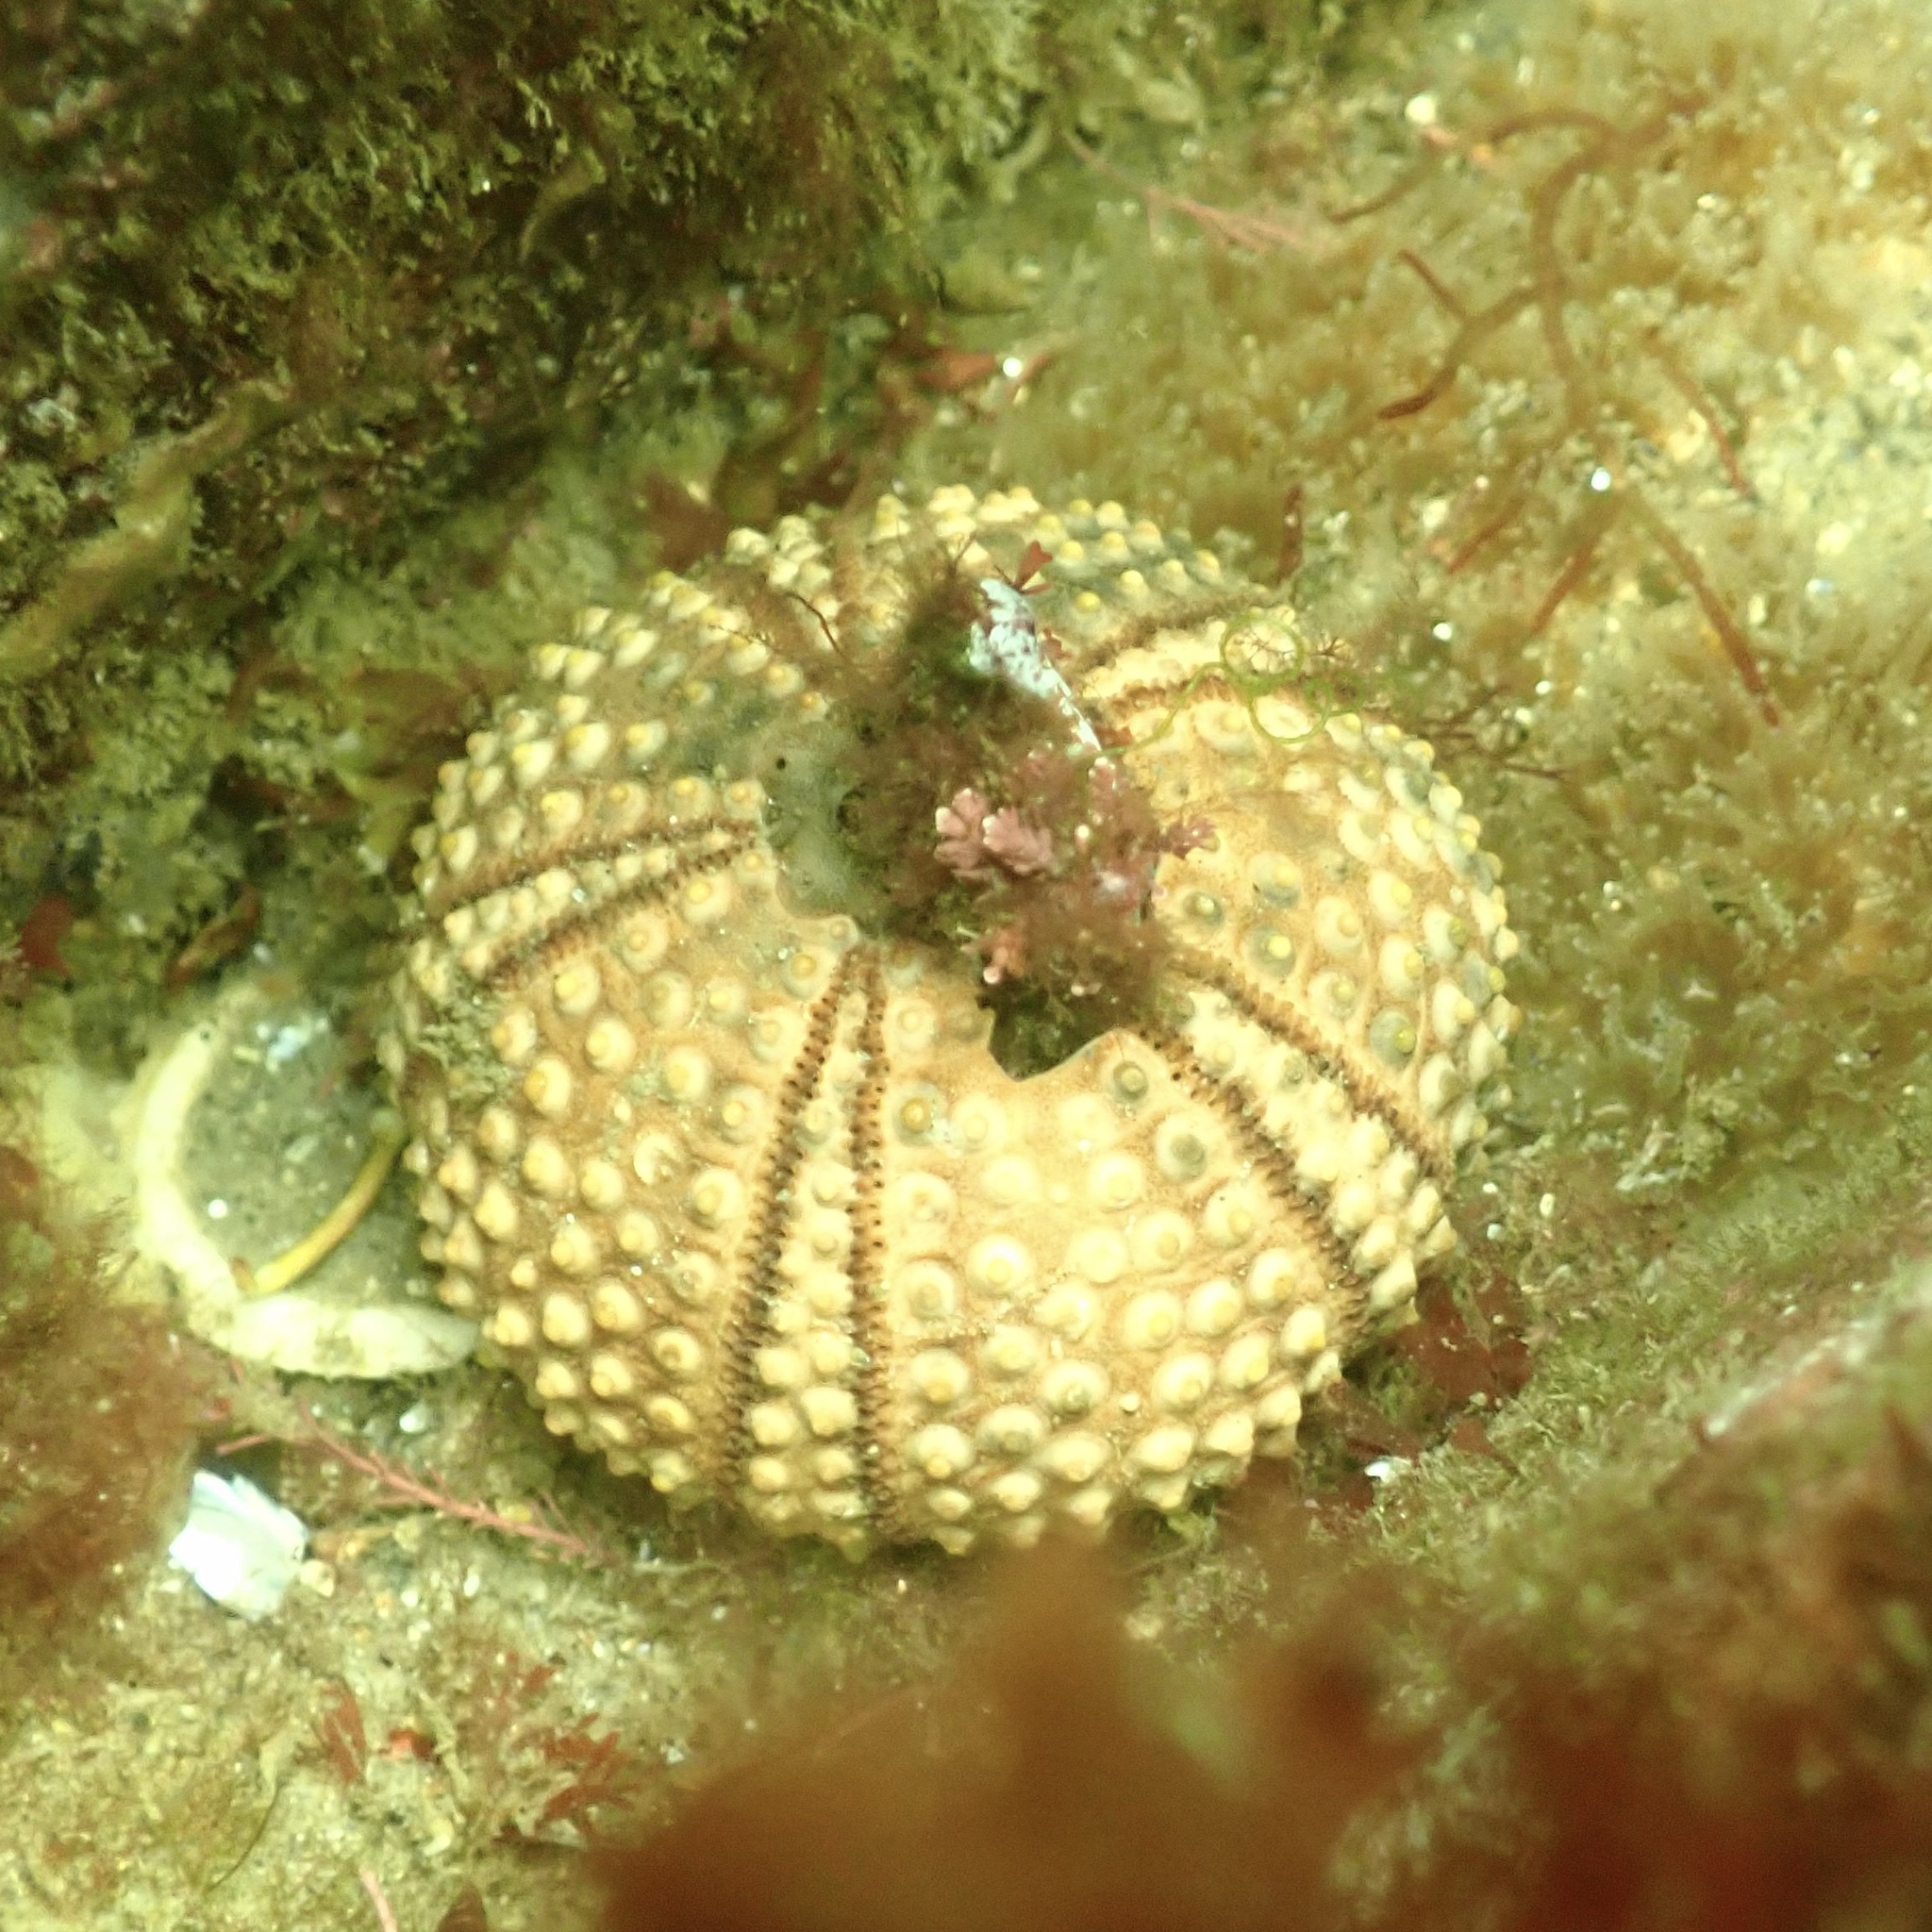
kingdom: Animalia
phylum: Echinodermata
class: Echinoidea
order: Arbacioida
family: Arbaciidae
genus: Arbacia
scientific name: Arbacia punctulata
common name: Purple-spined sea urchin
